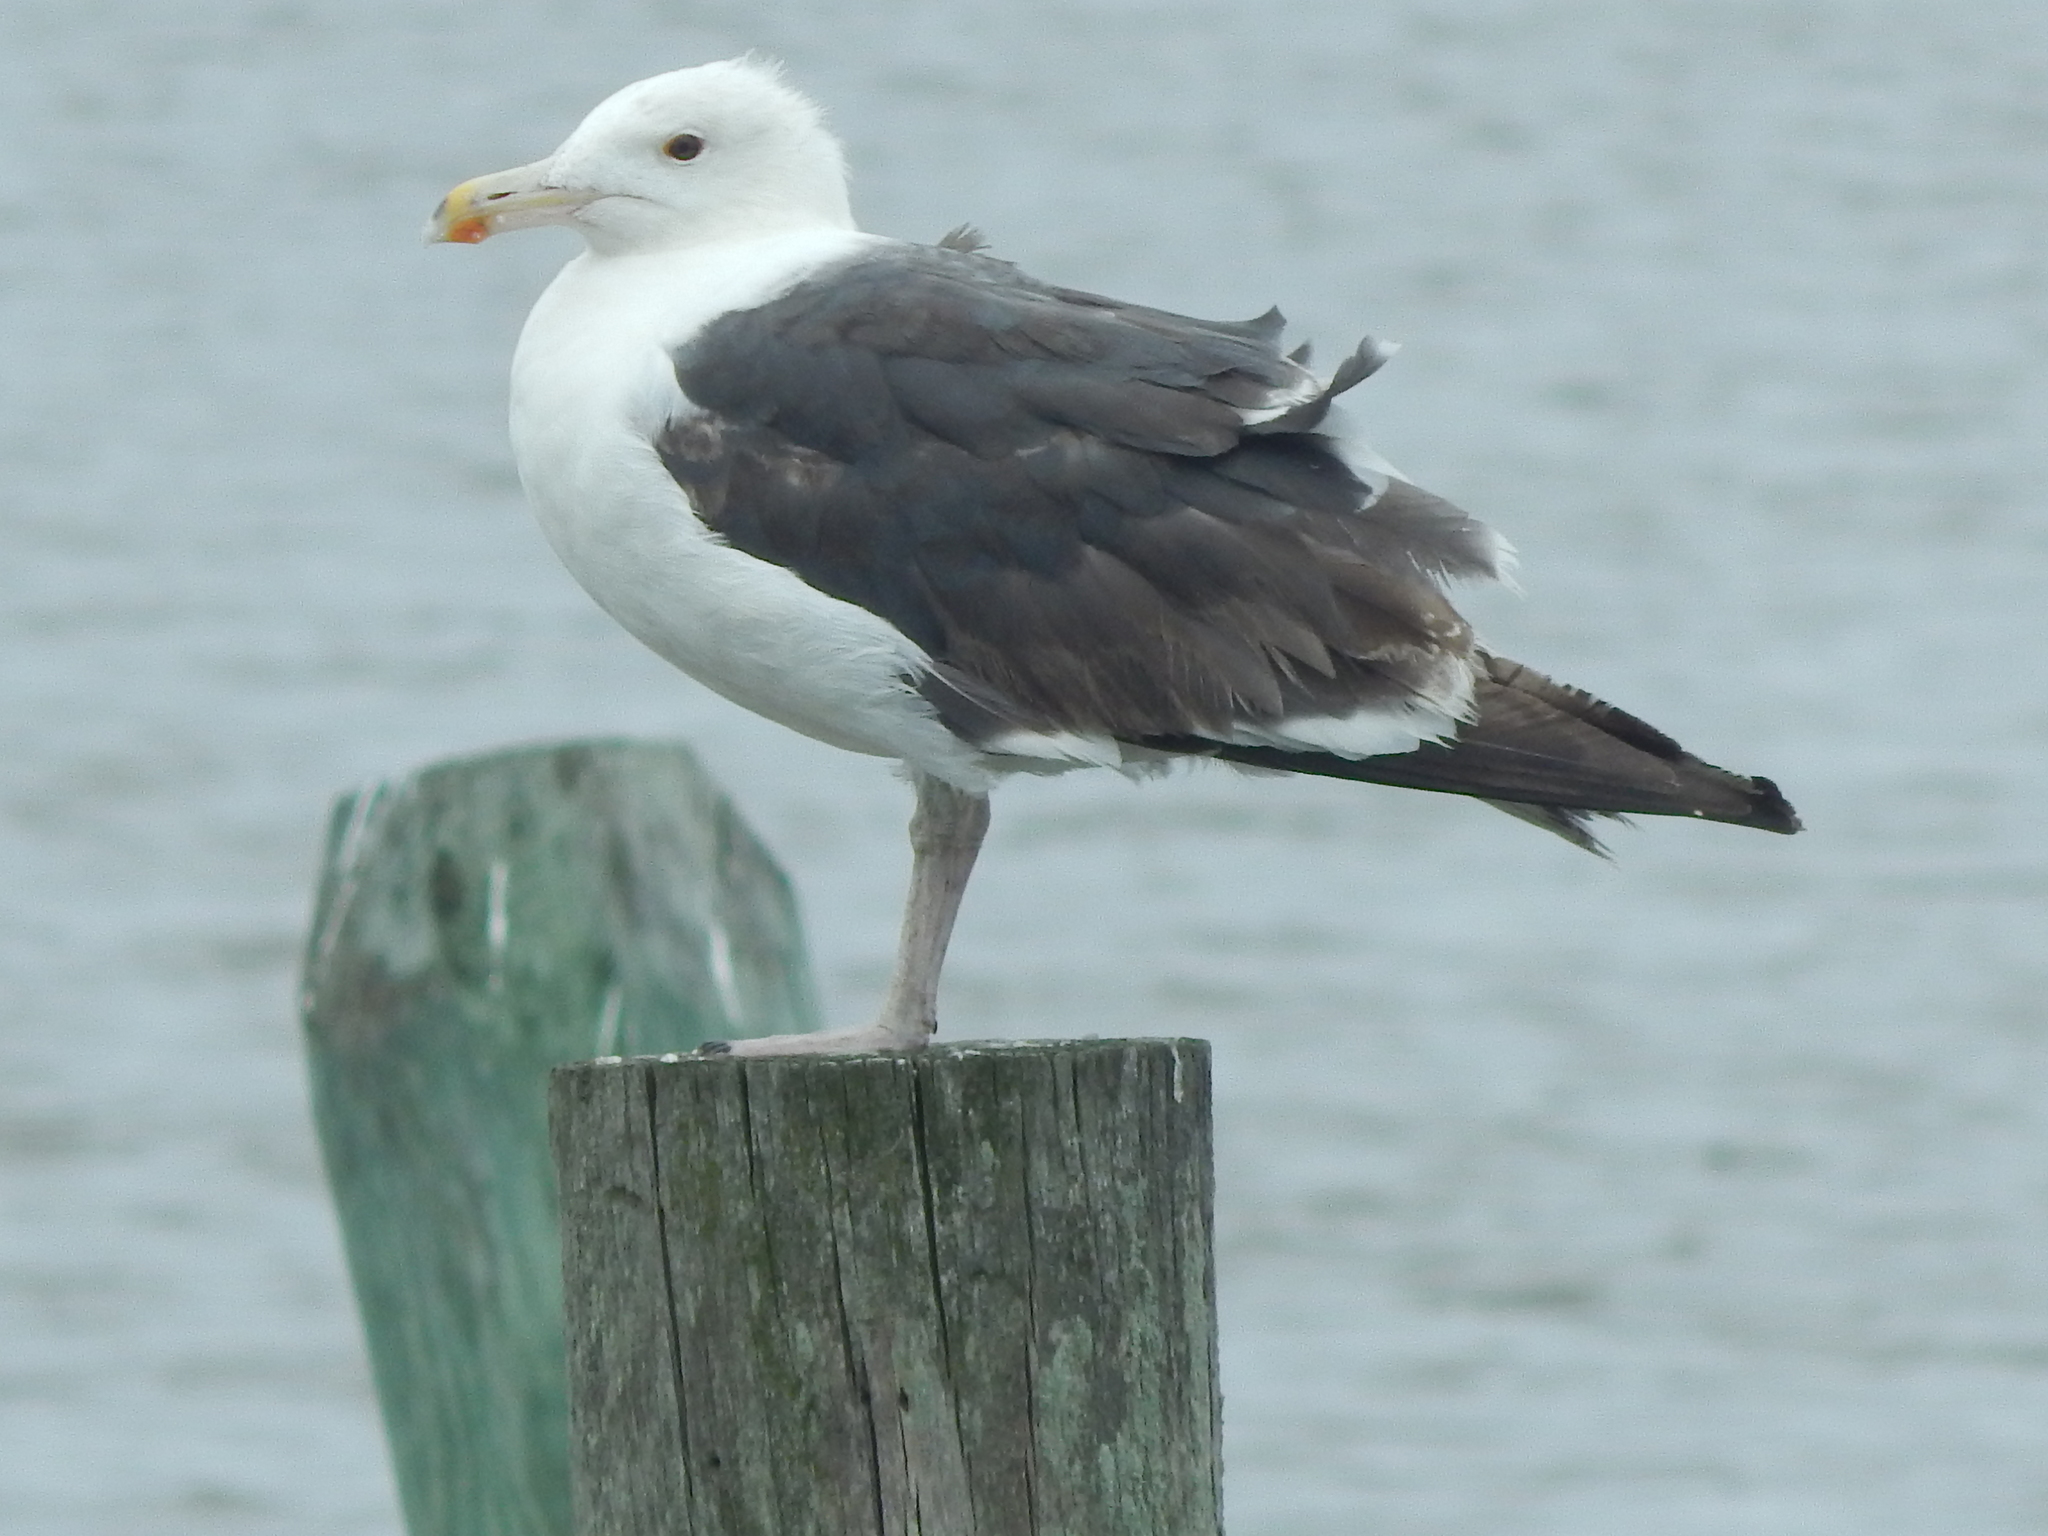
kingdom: Animalia
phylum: Chordata
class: Aves
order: Charadriiformes
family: Laridae
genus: Larus
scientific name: Larus fuscus
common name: Lesser black-backed gull
